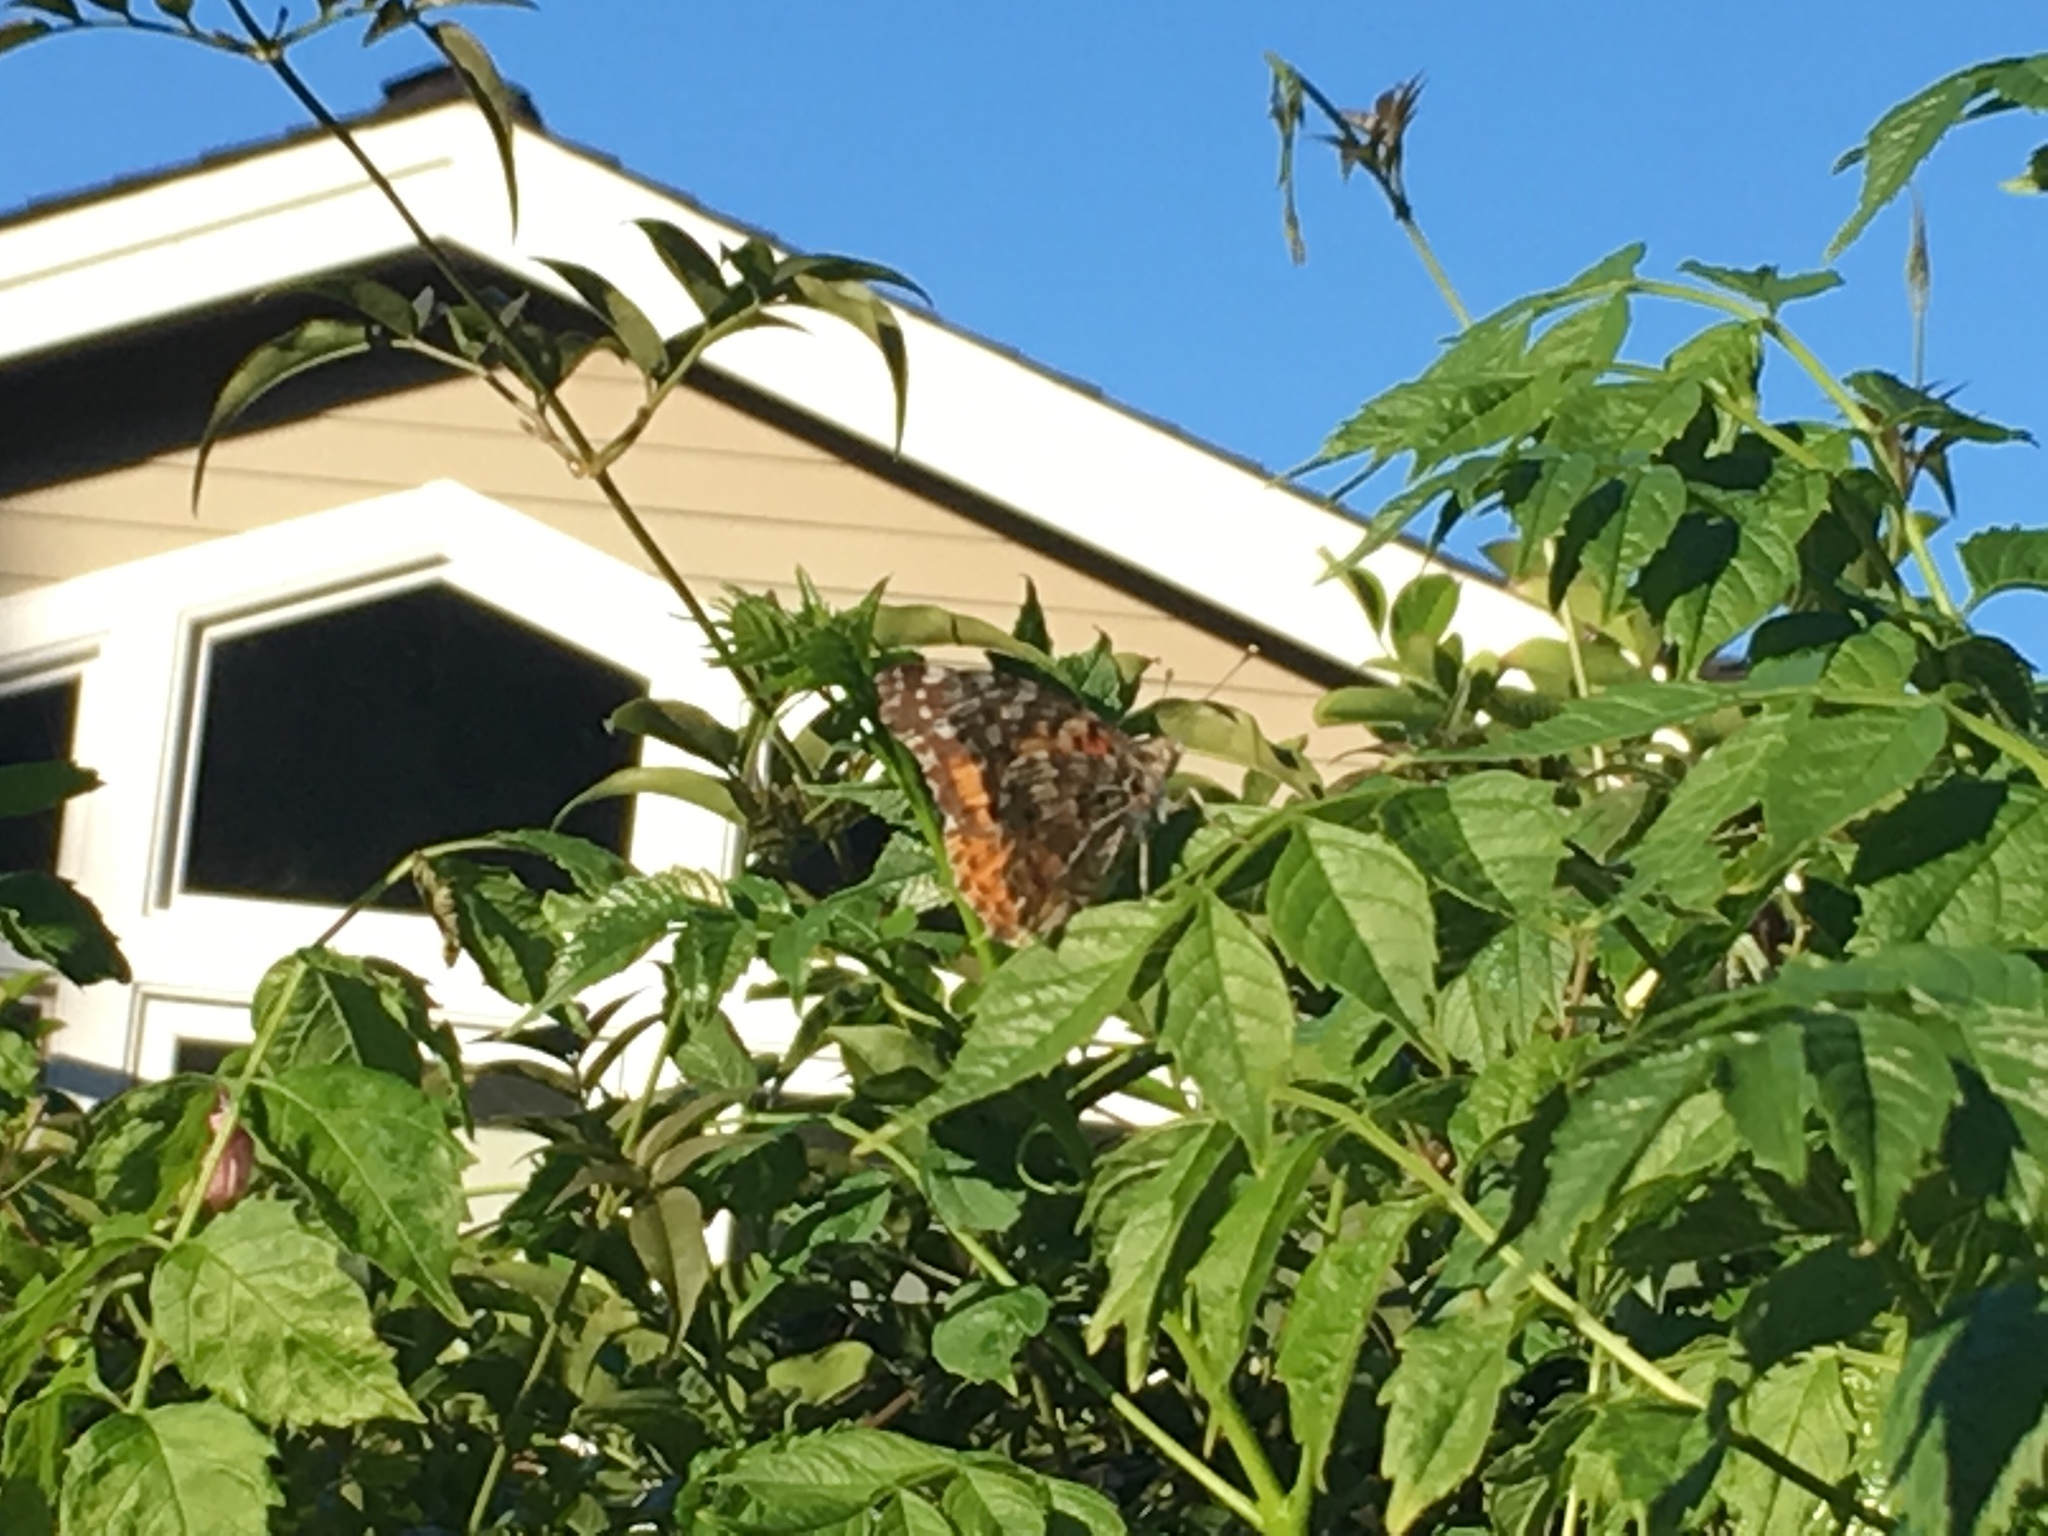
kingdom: Animalia
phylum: Arthropoda
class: Insecta
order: Lepidoptera
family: Nymphalidae
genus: Vanessa
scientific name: Vanessa cardui
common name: Painted lady
